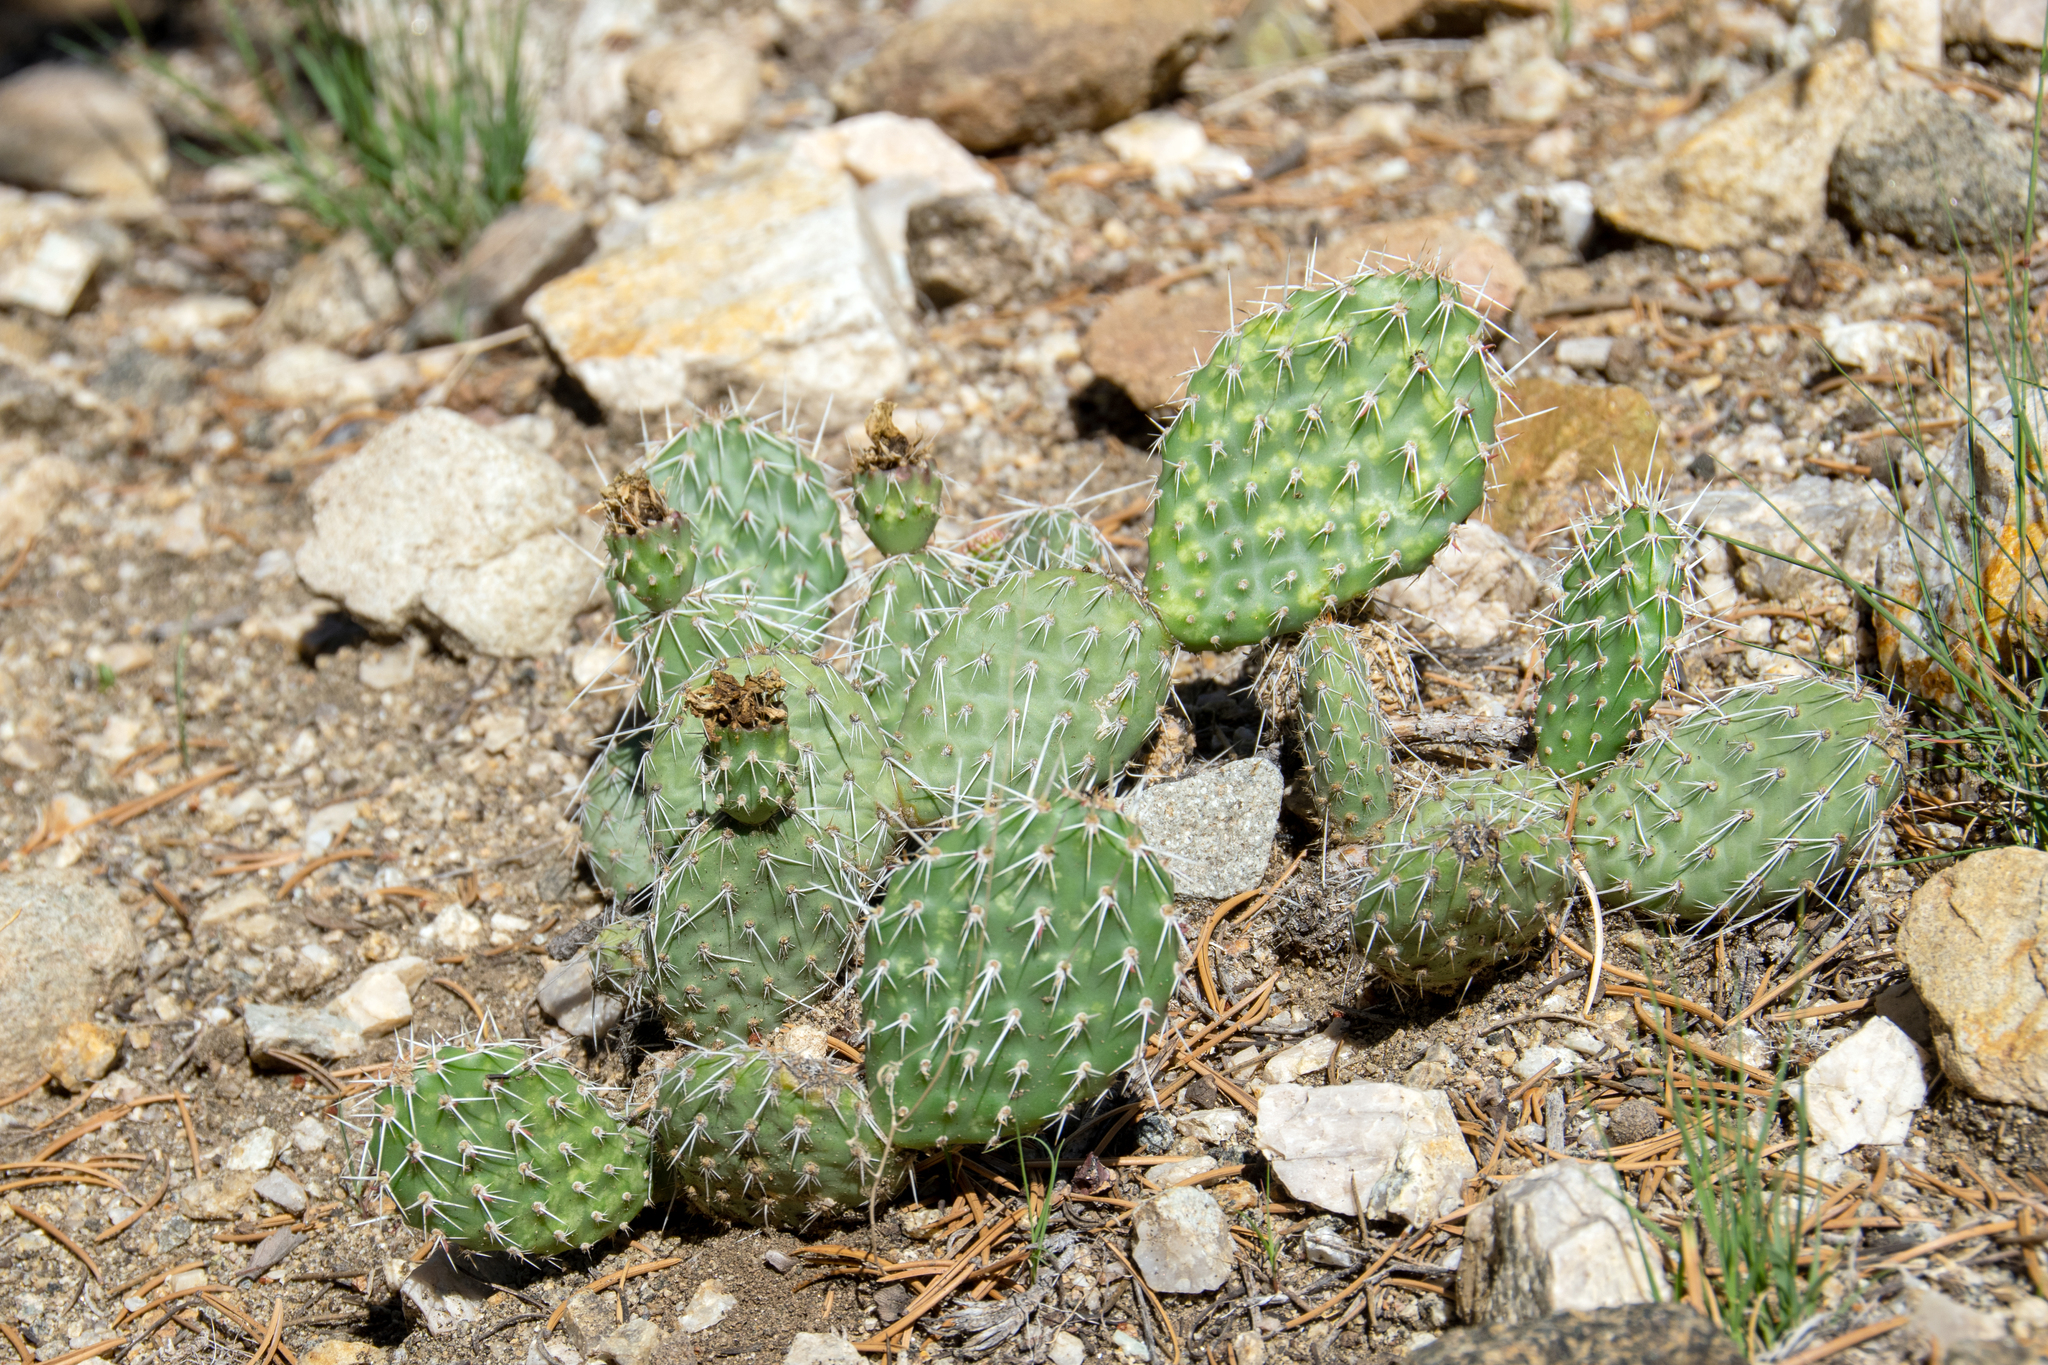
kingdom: Plantae
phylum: Tracheophyta
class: Magnoliopsida
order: Caryophyllales
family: Cactaceae
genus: Opuntia
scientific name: Opuntia polyacantha
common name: Plains prickly-pear
